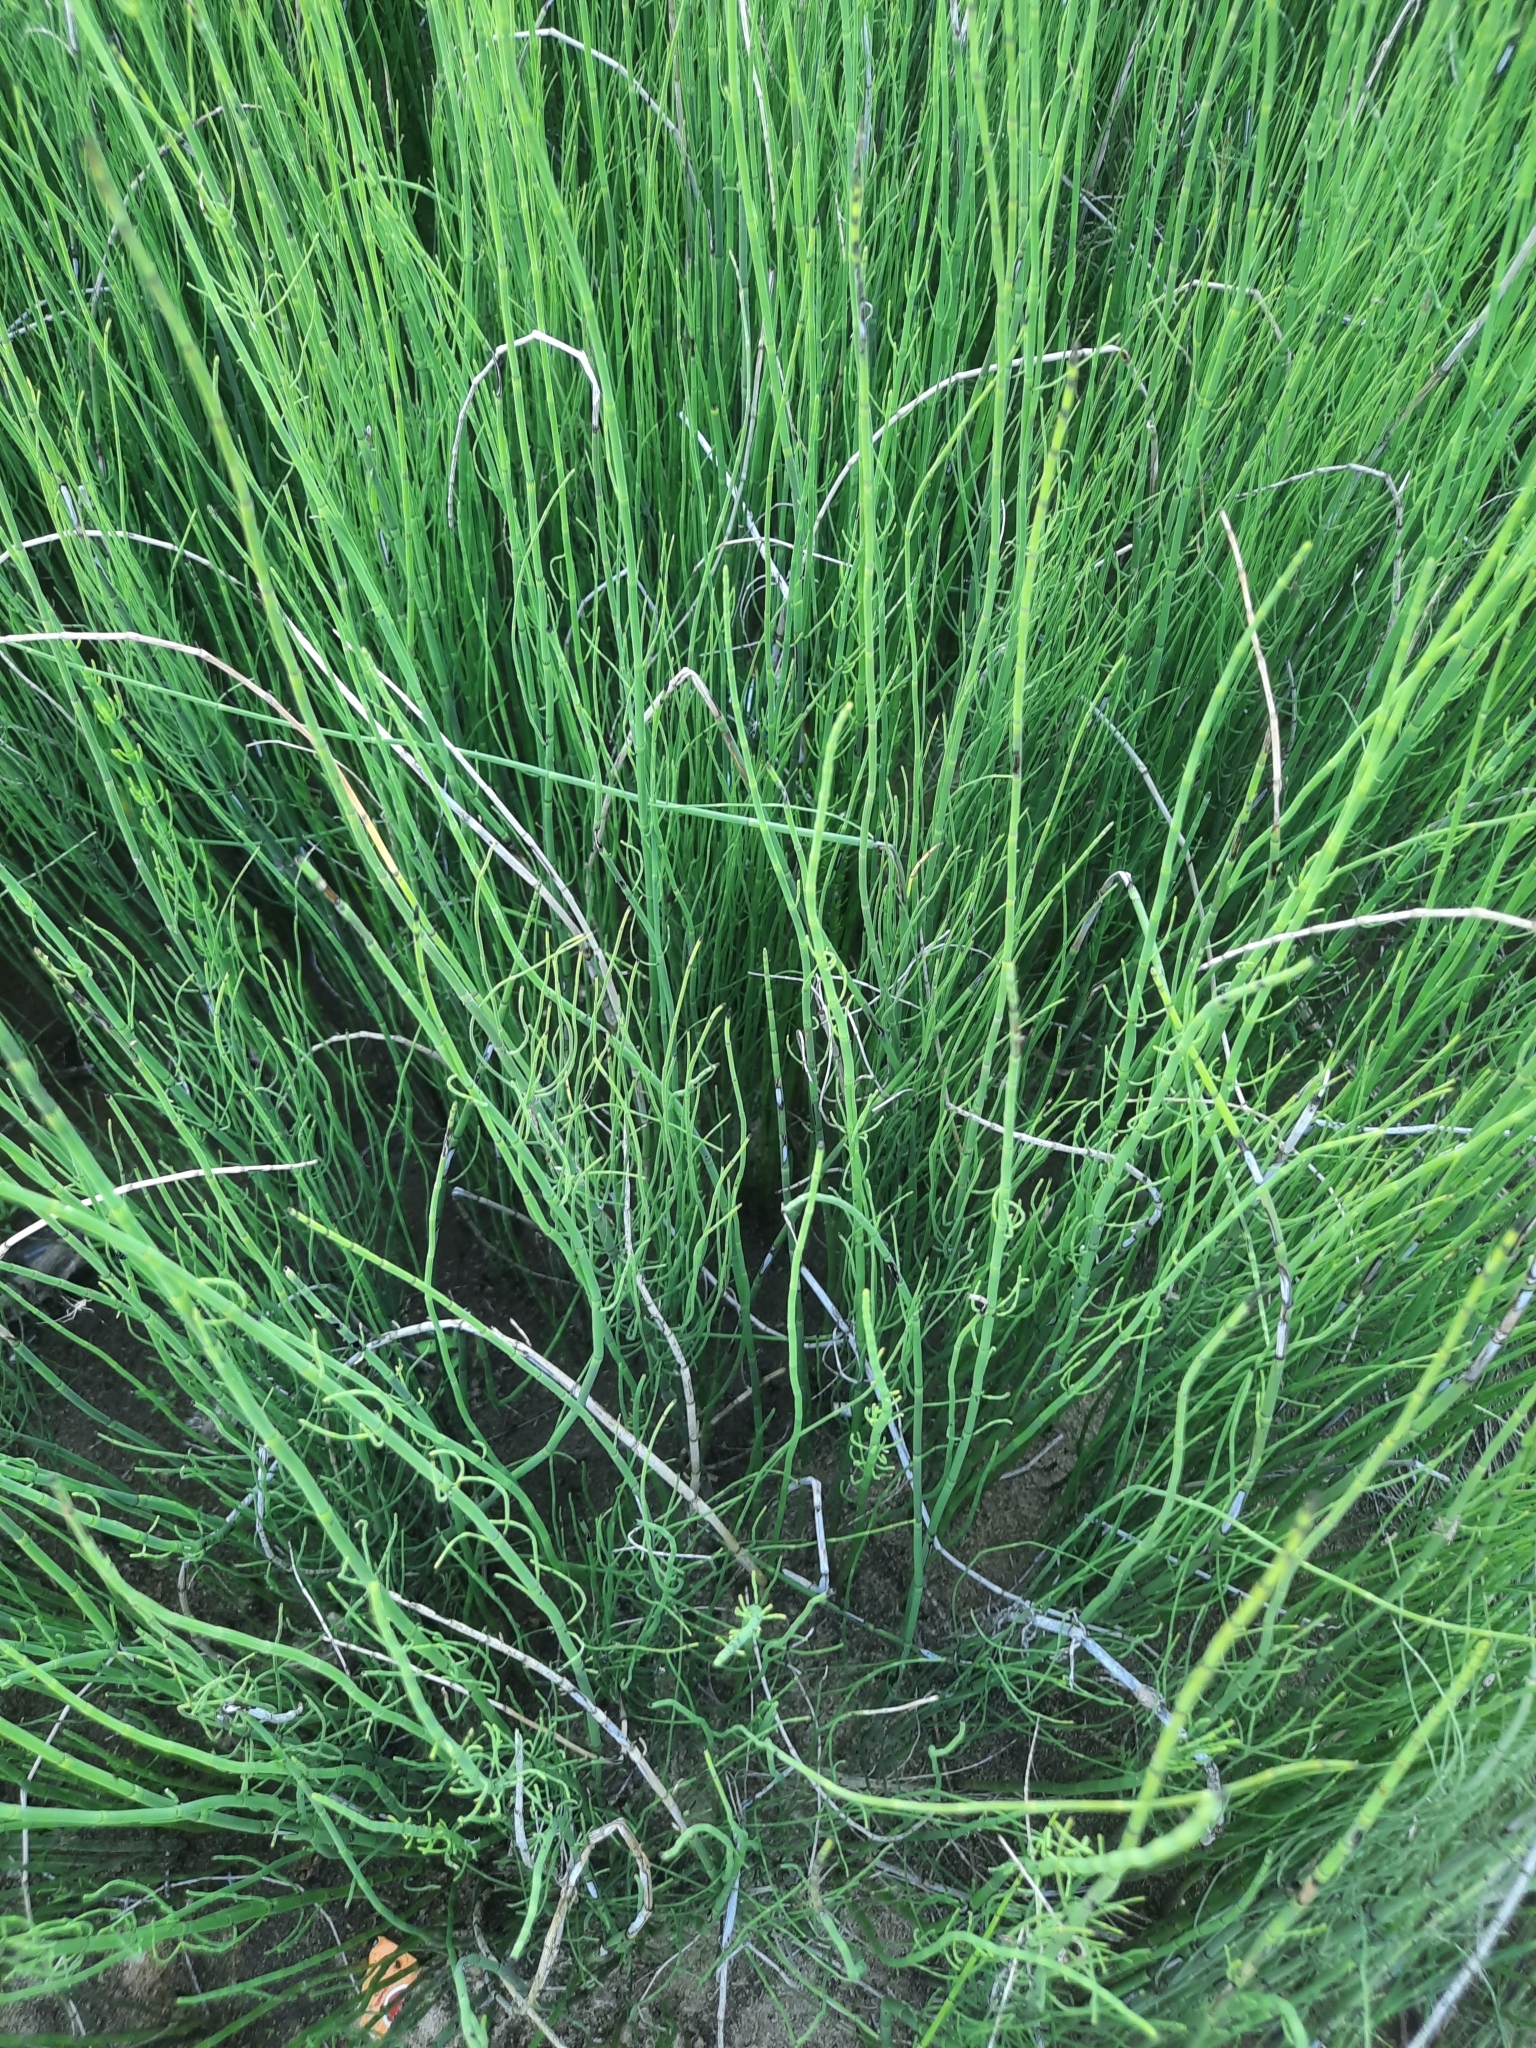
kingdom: Plantae
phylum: Tracheophyta
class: Polypodiopsida
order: Equisetales
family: Equisetaceae
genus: Equisetum
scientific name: Equisetum fluviatile
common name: Water horsetail
